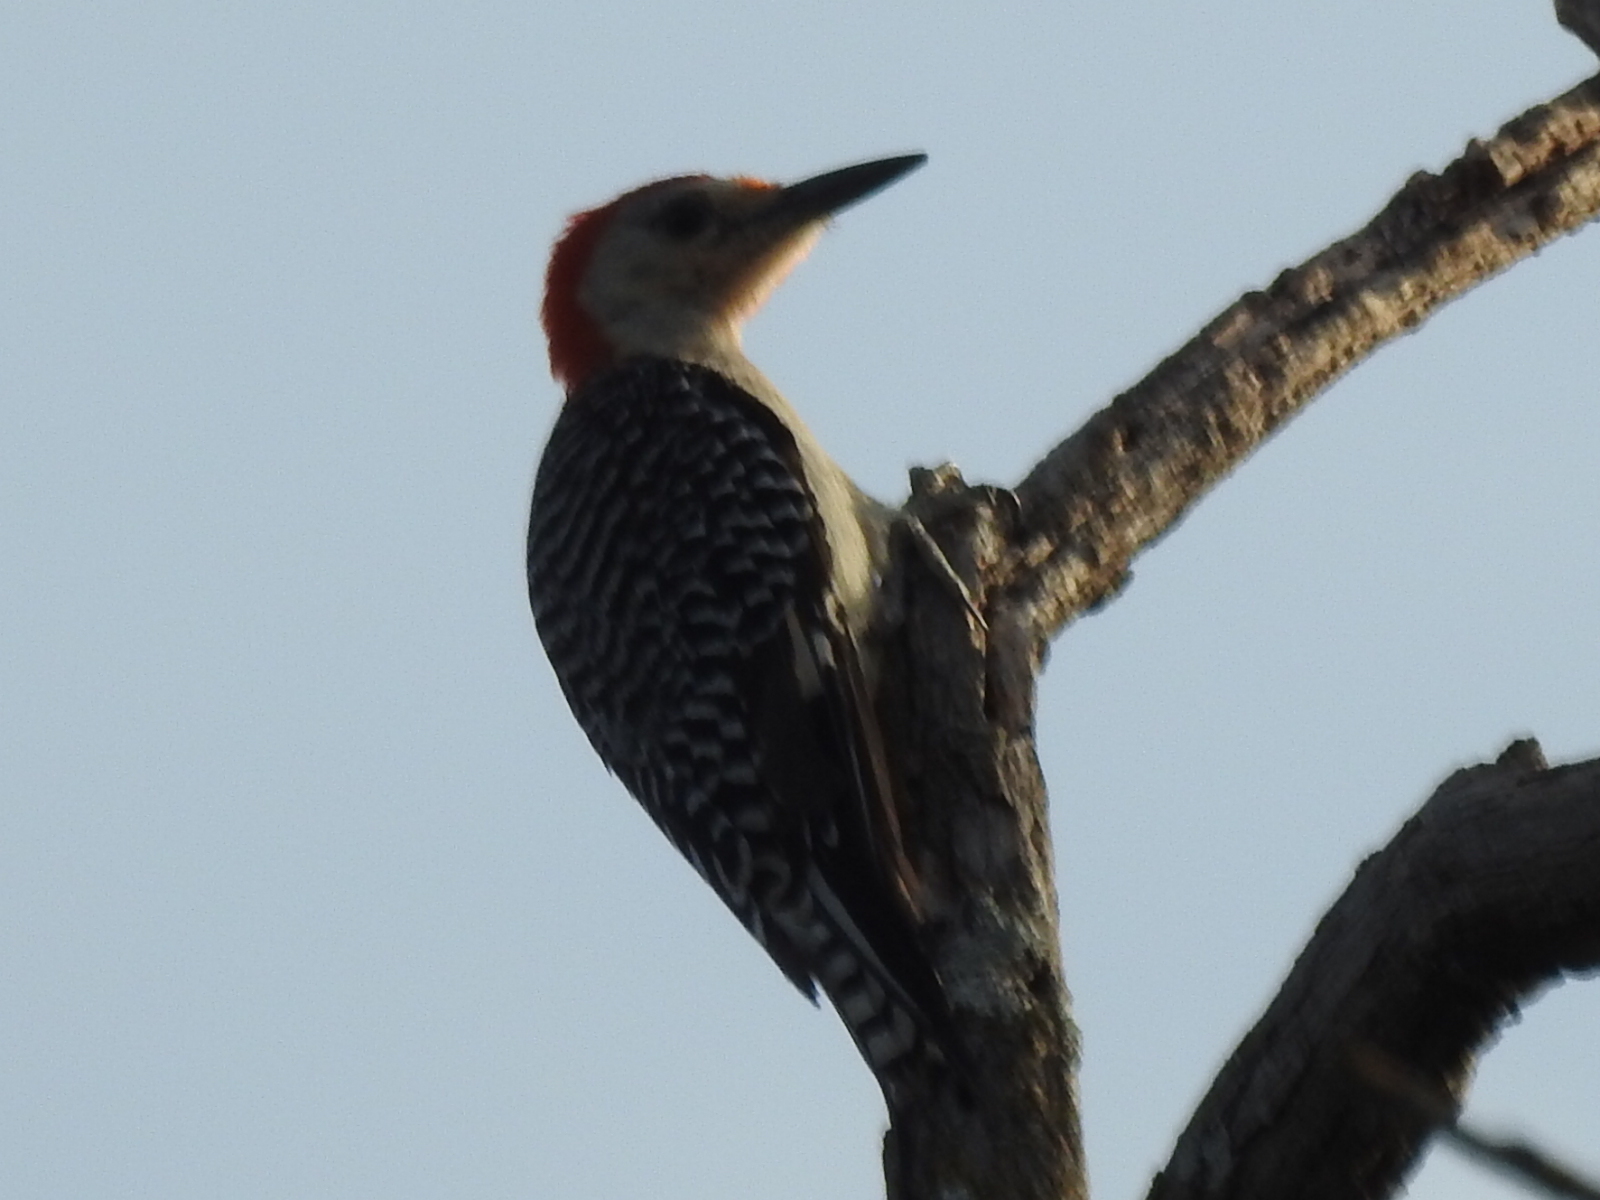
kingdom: Animalia
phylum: Chordata
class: Aves
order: Piciformes
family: Picidae
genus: Melanerpes
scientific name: Melanerpes carolinus
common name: Red-bellied woodpecker
